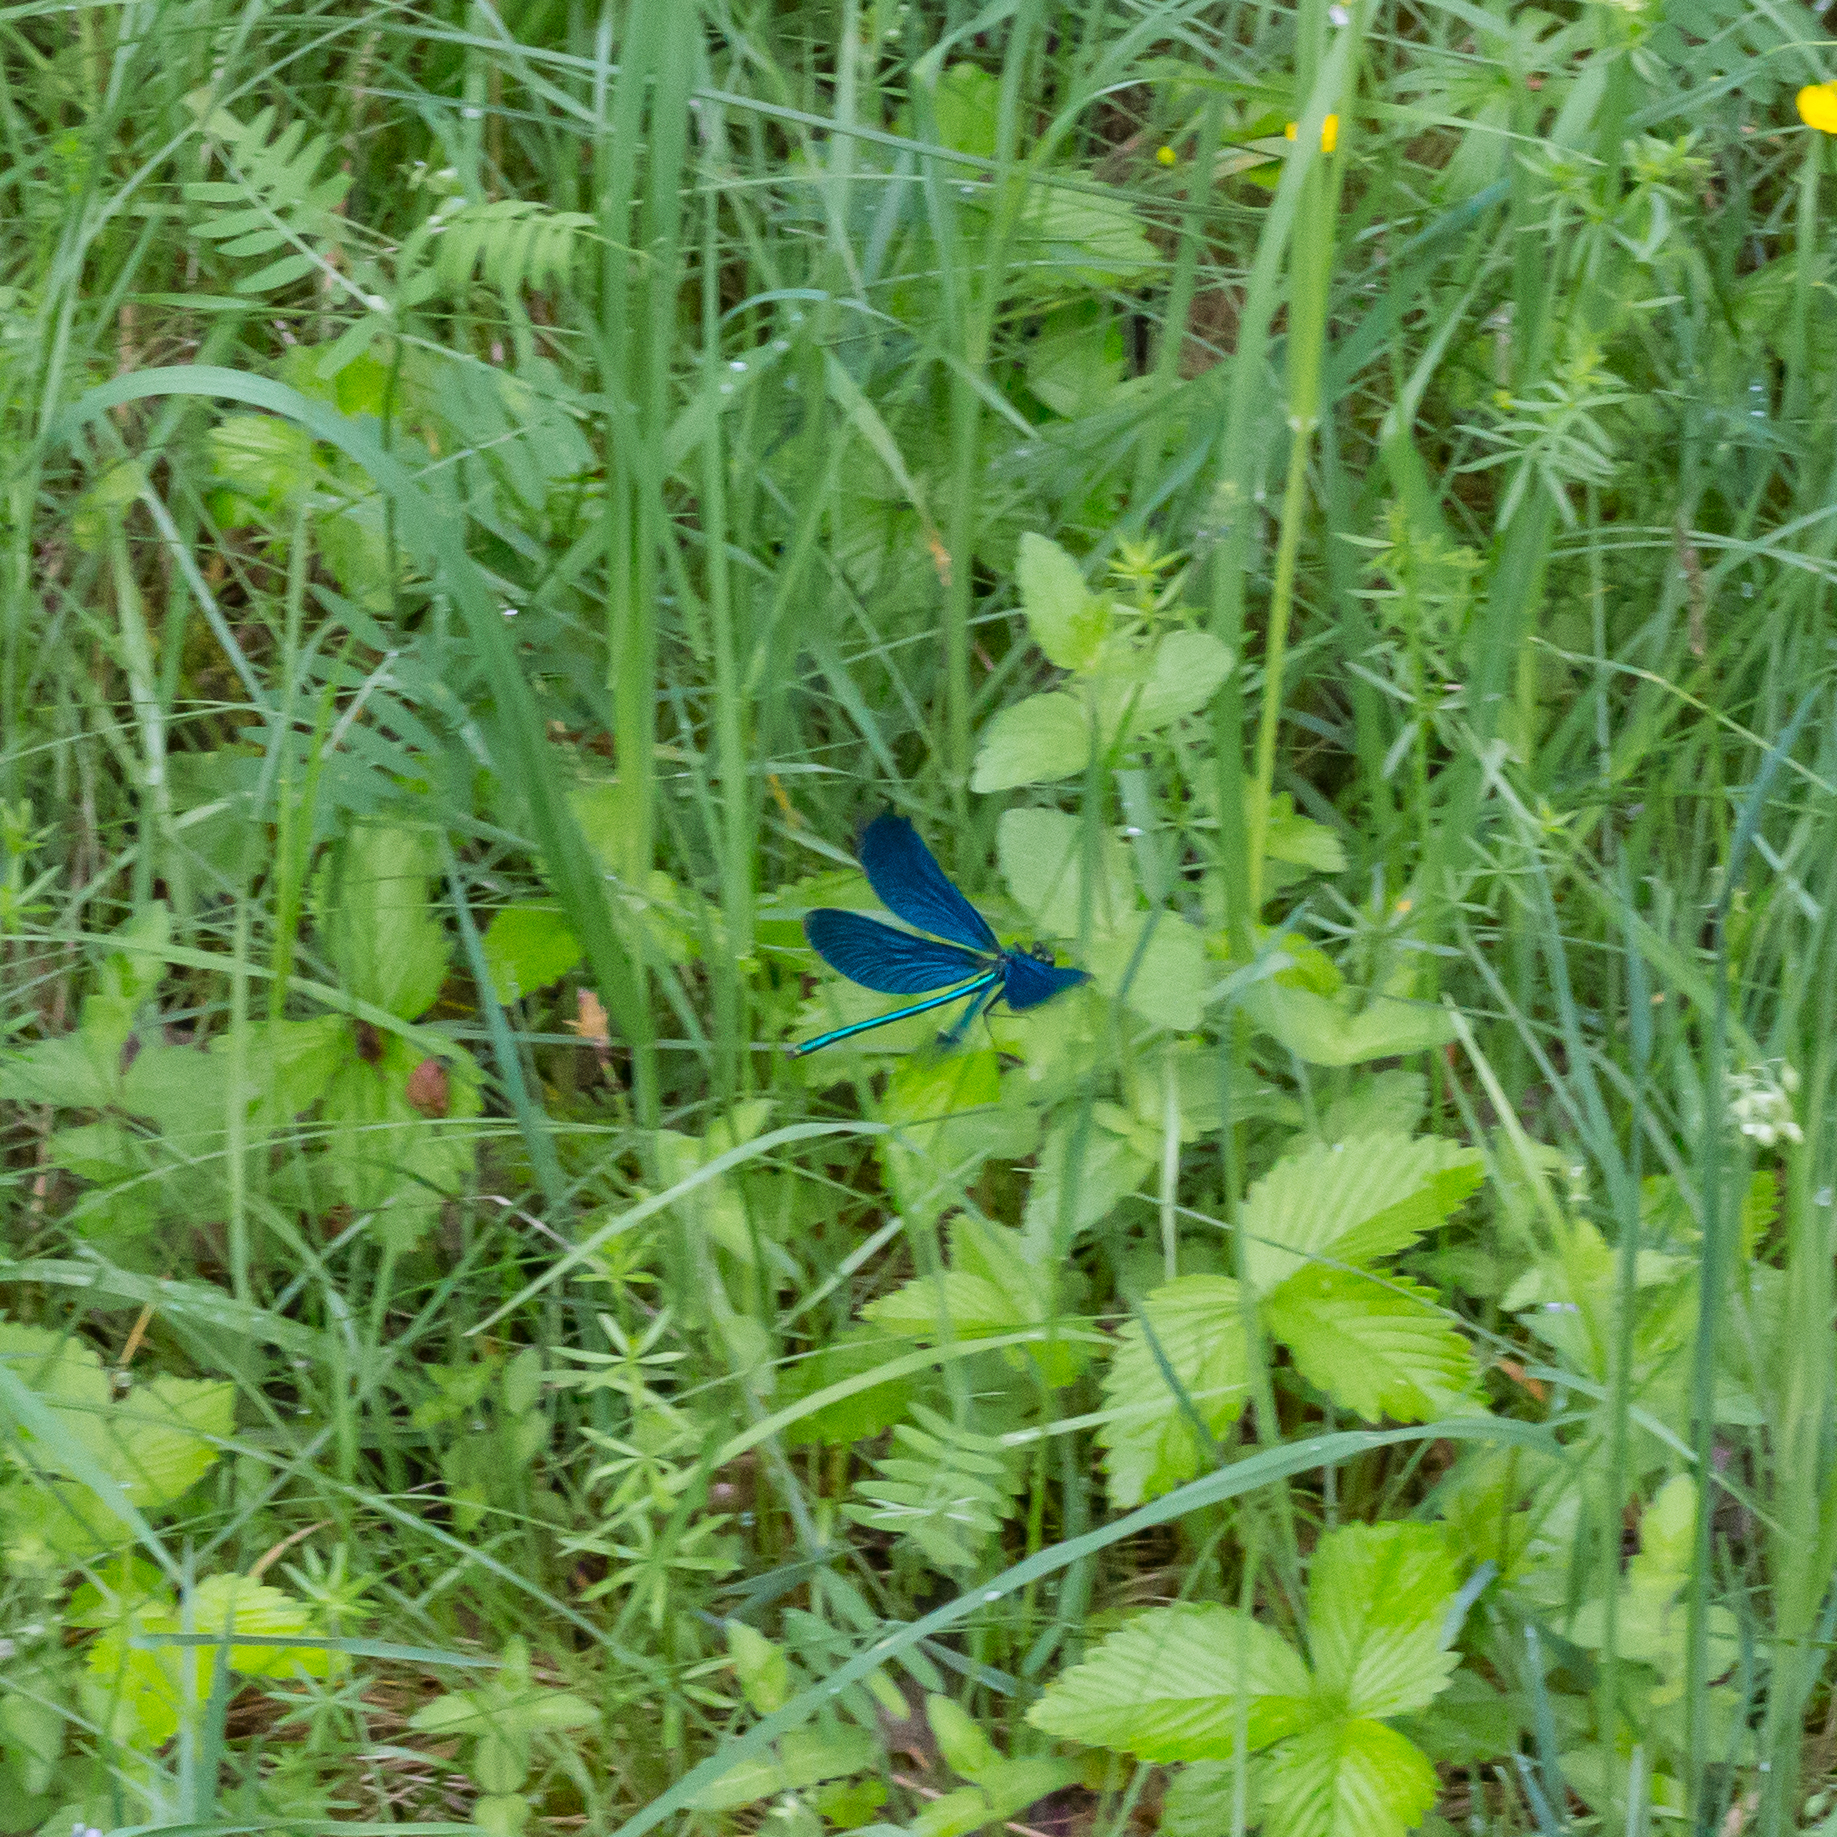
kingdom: Animalia
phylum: Arthropoda
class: Insecta
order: Odonata
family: Calopterygidae
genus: Calopteryx
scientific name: Calopteryx virgo
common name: Beautiful demoiselle
